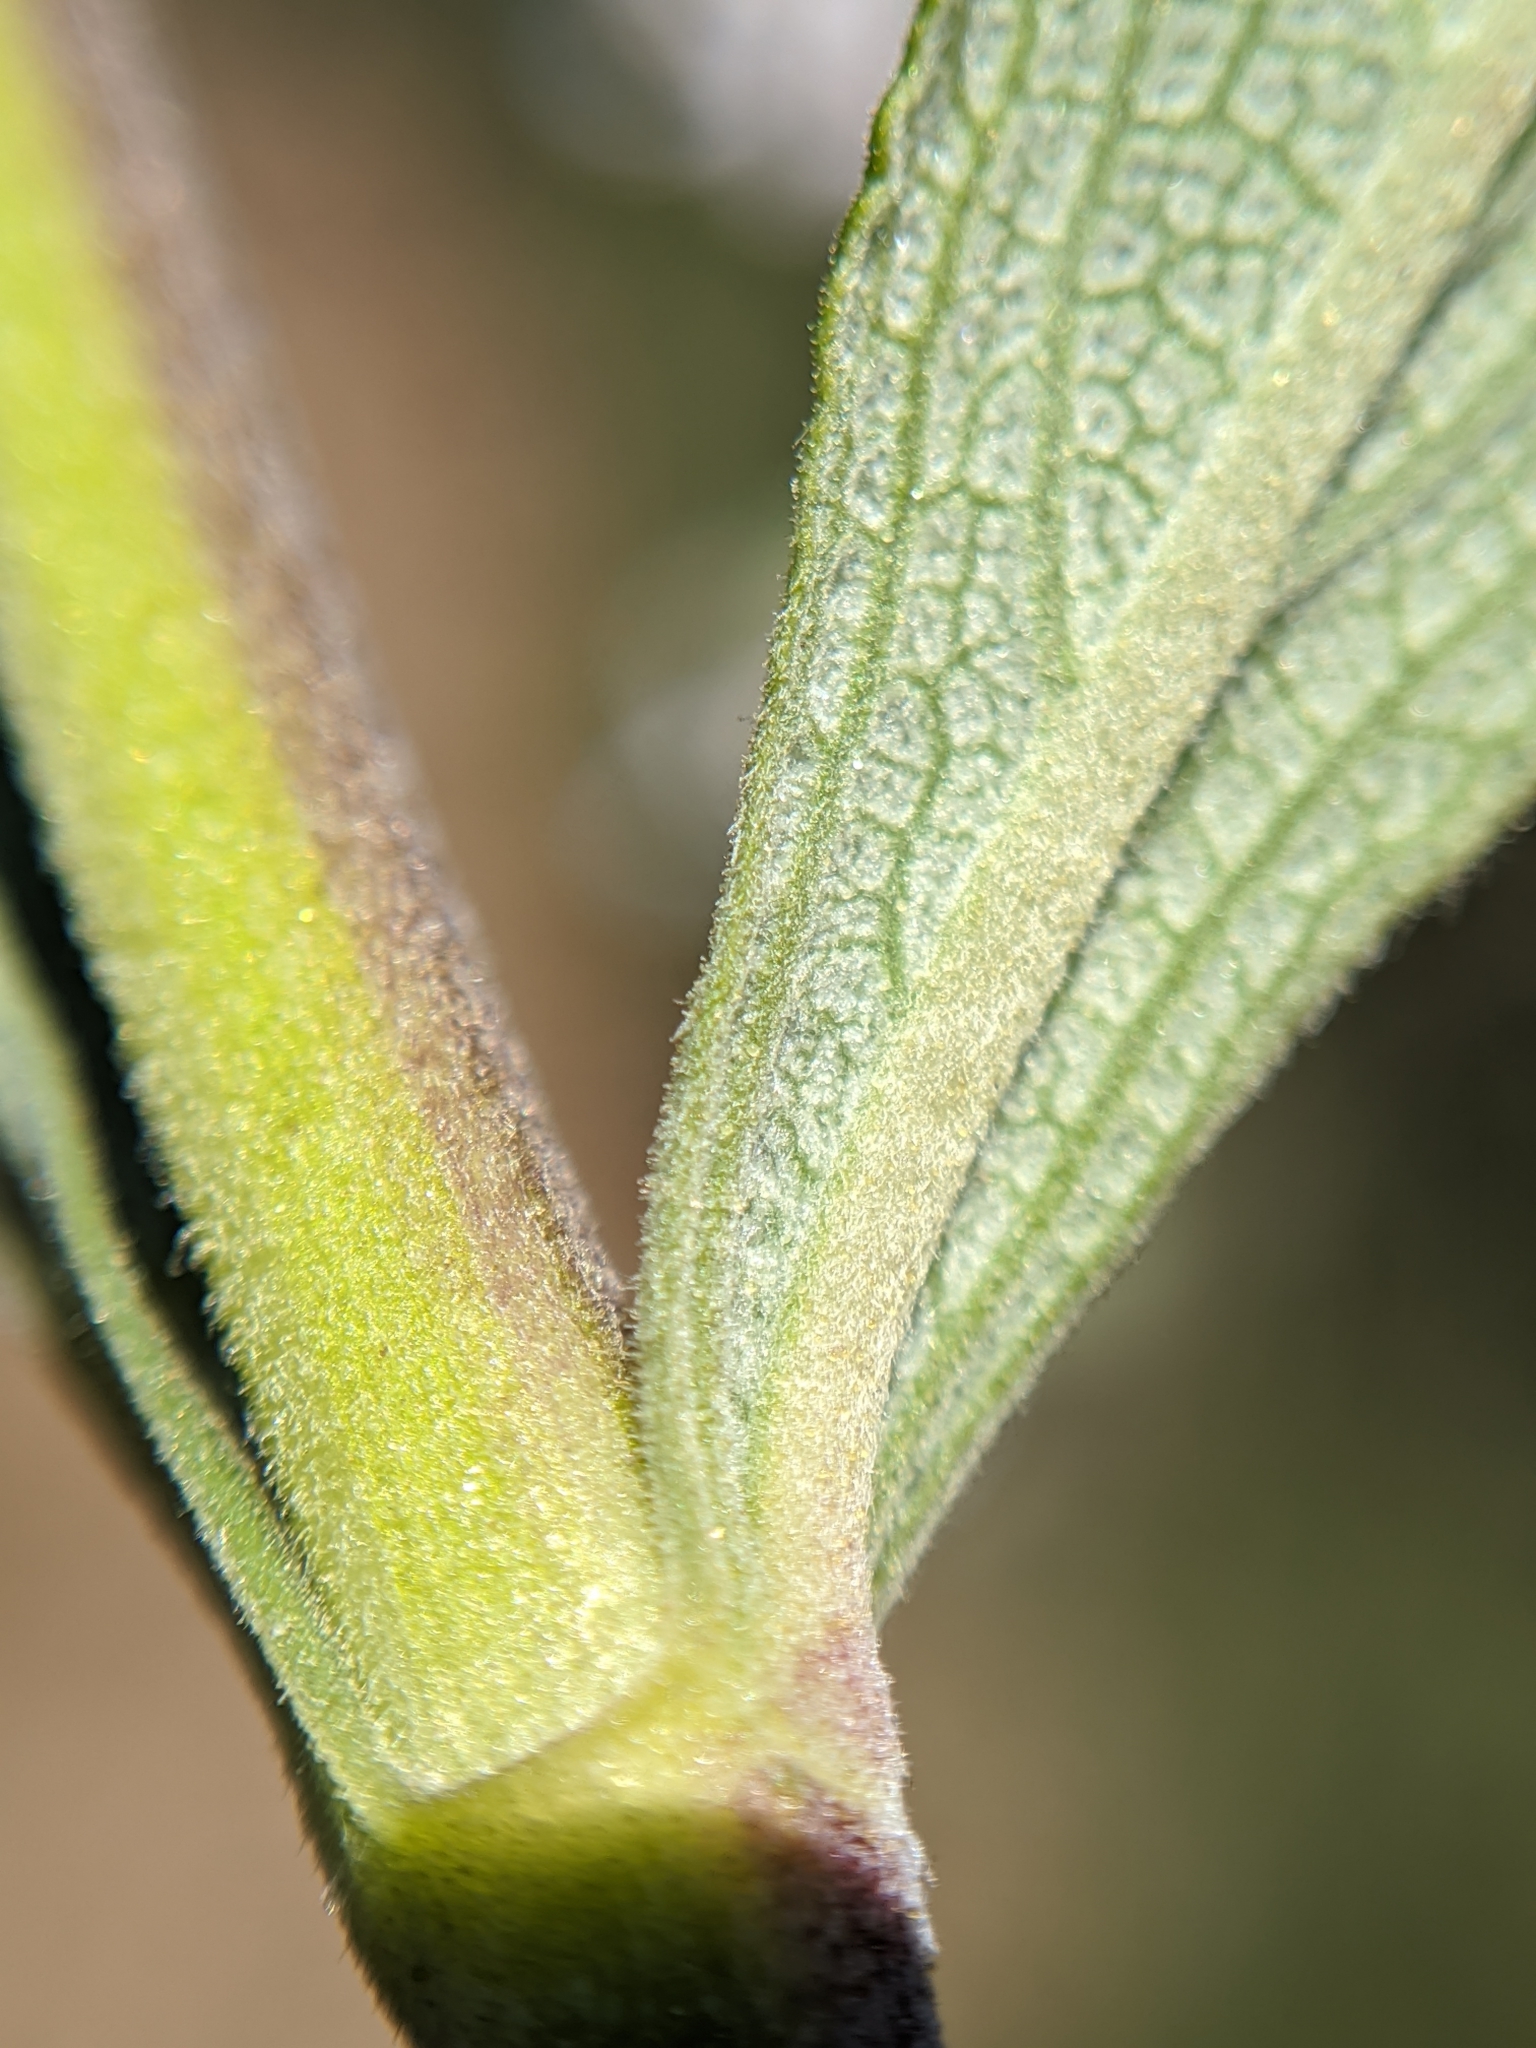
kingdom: Plantae
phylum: Tracheophyta
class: Magnoliopsida
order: Lamiales
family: Lamiaceae
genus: Salvia
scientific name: Salvia mellifera
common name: Black sage
